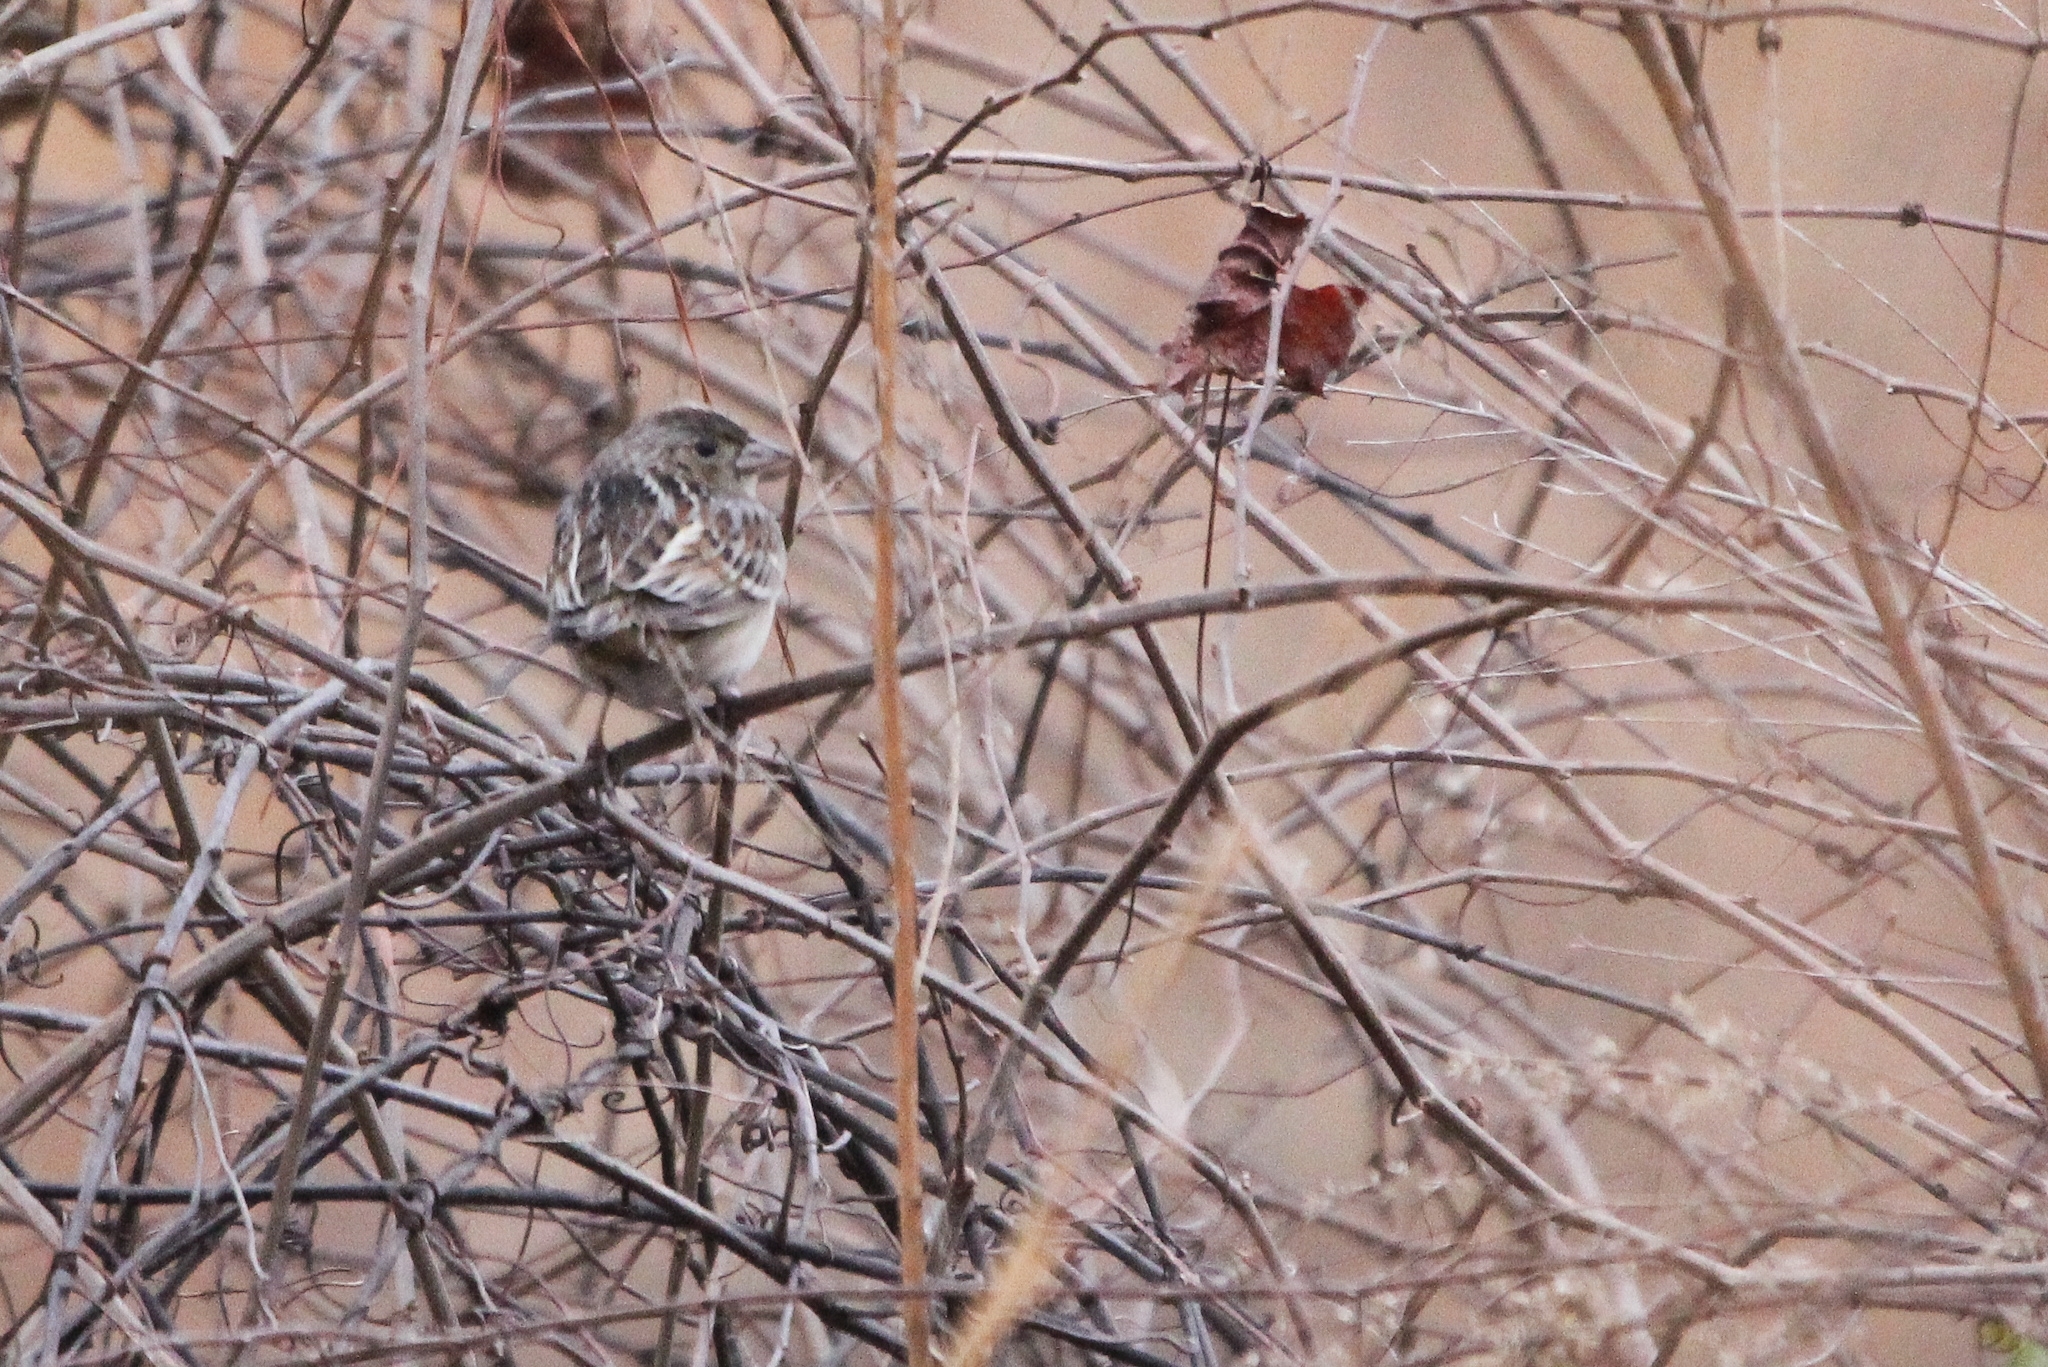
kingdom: Animalia
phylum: Chordata
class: Aves
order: Passeriformes
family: Passerellidae
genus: Ammodramus
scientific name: Ammodramus savannarum
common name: Grasshopper sparrow
